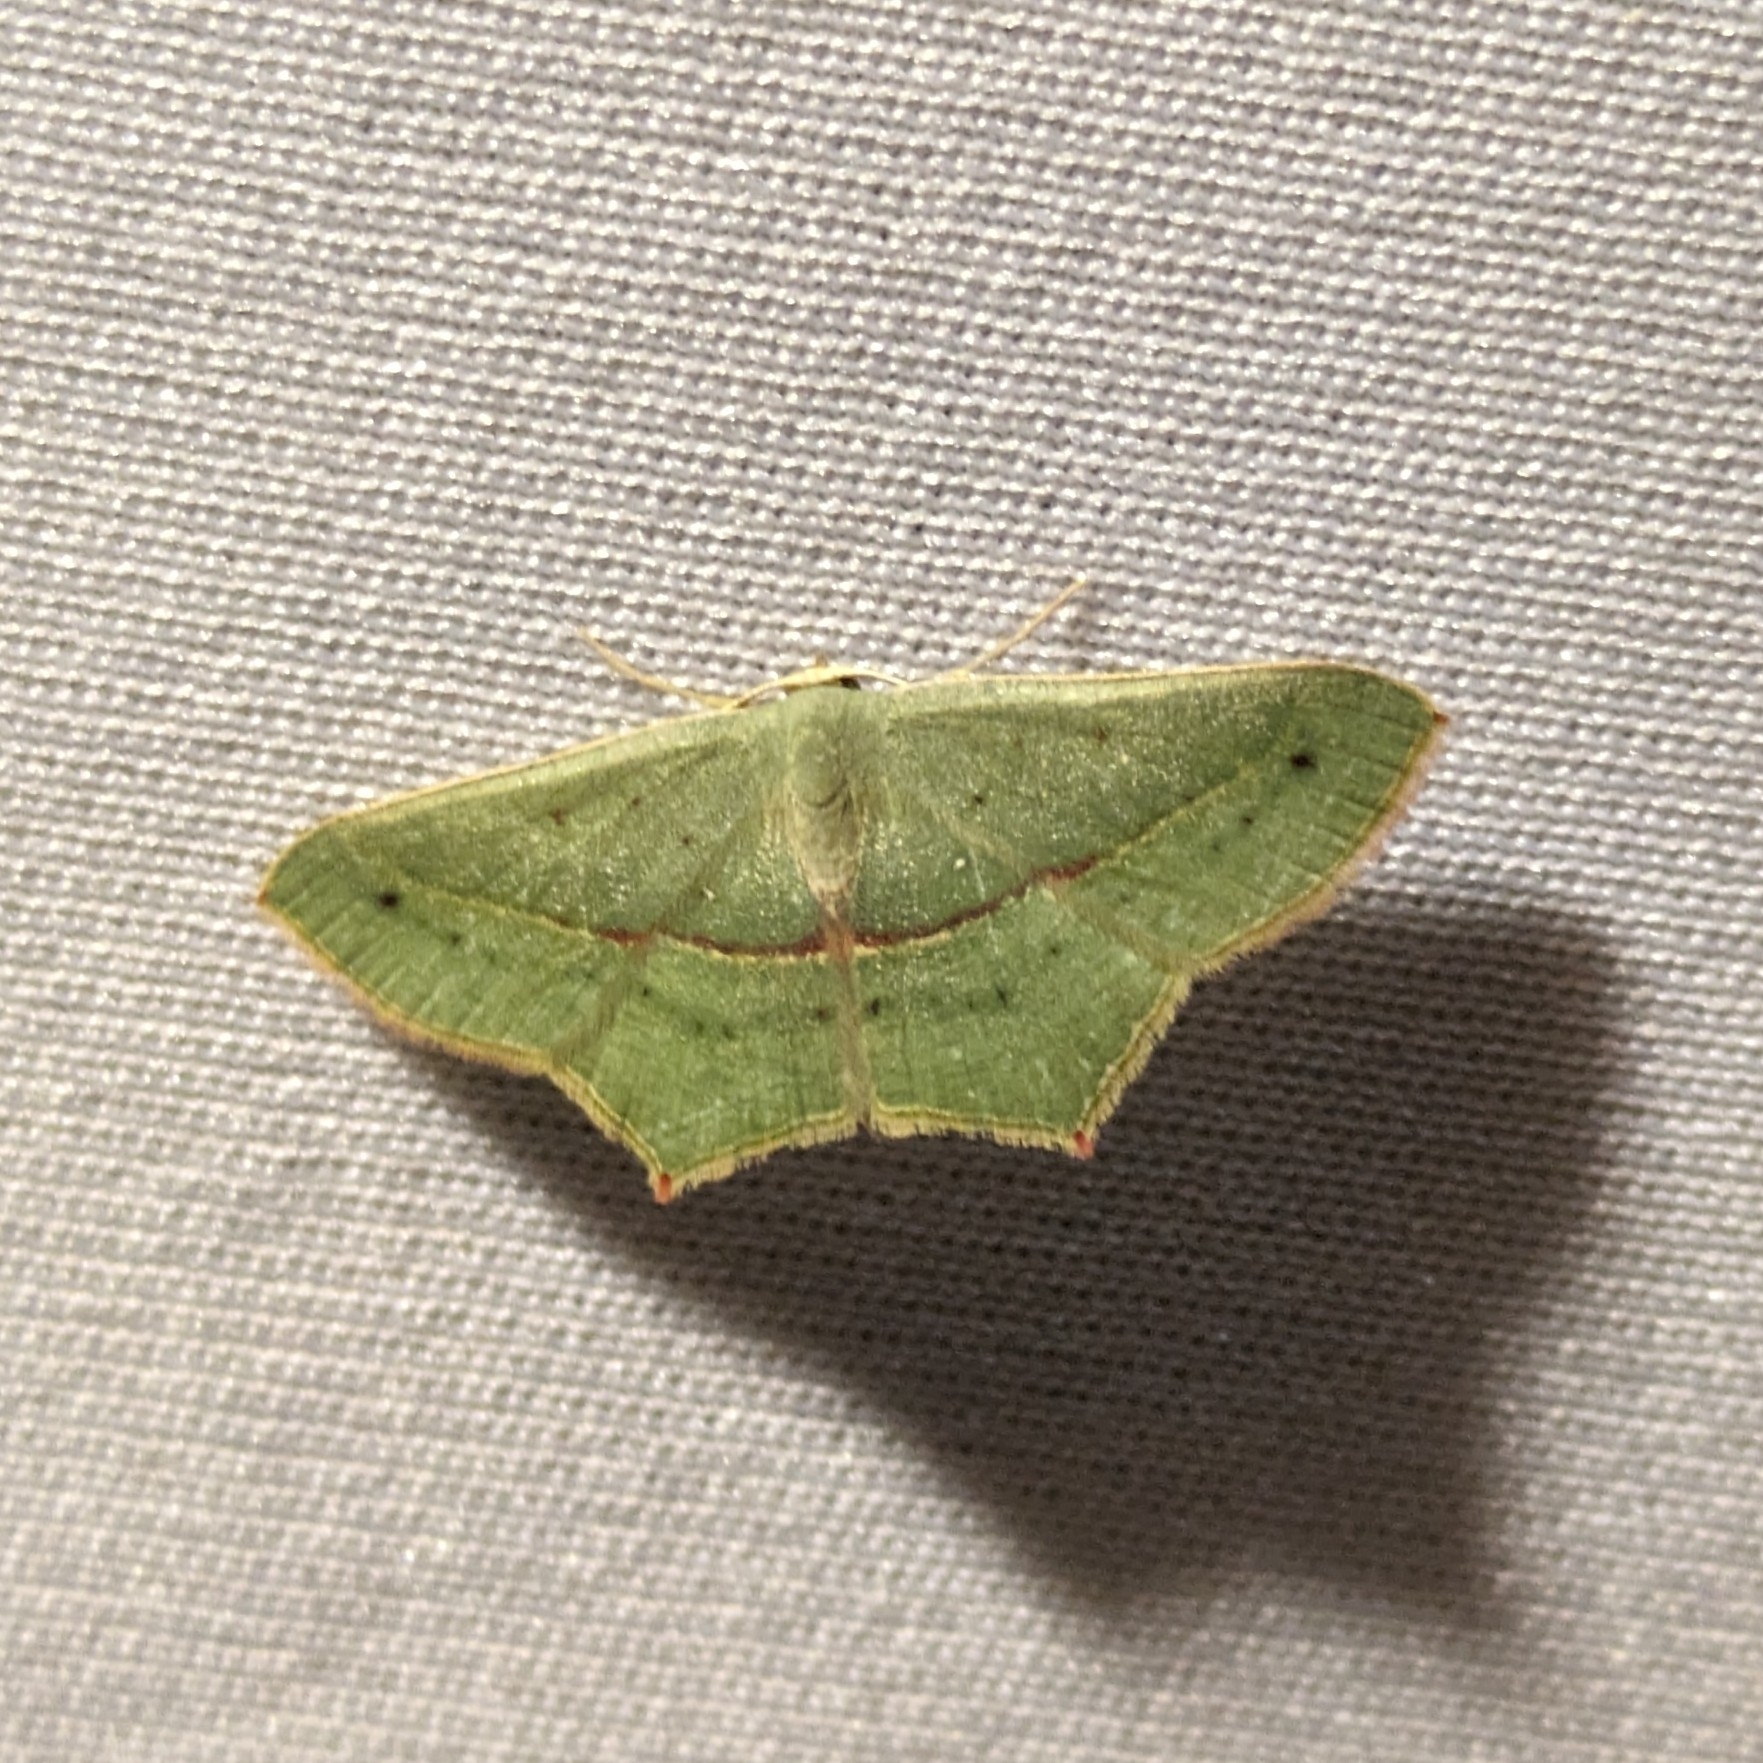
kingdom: Animalia
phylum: Arthropoda
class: Insecta
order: Lepidoptera
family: Geometridae
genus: Traminda
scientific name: Traminda mundissima
